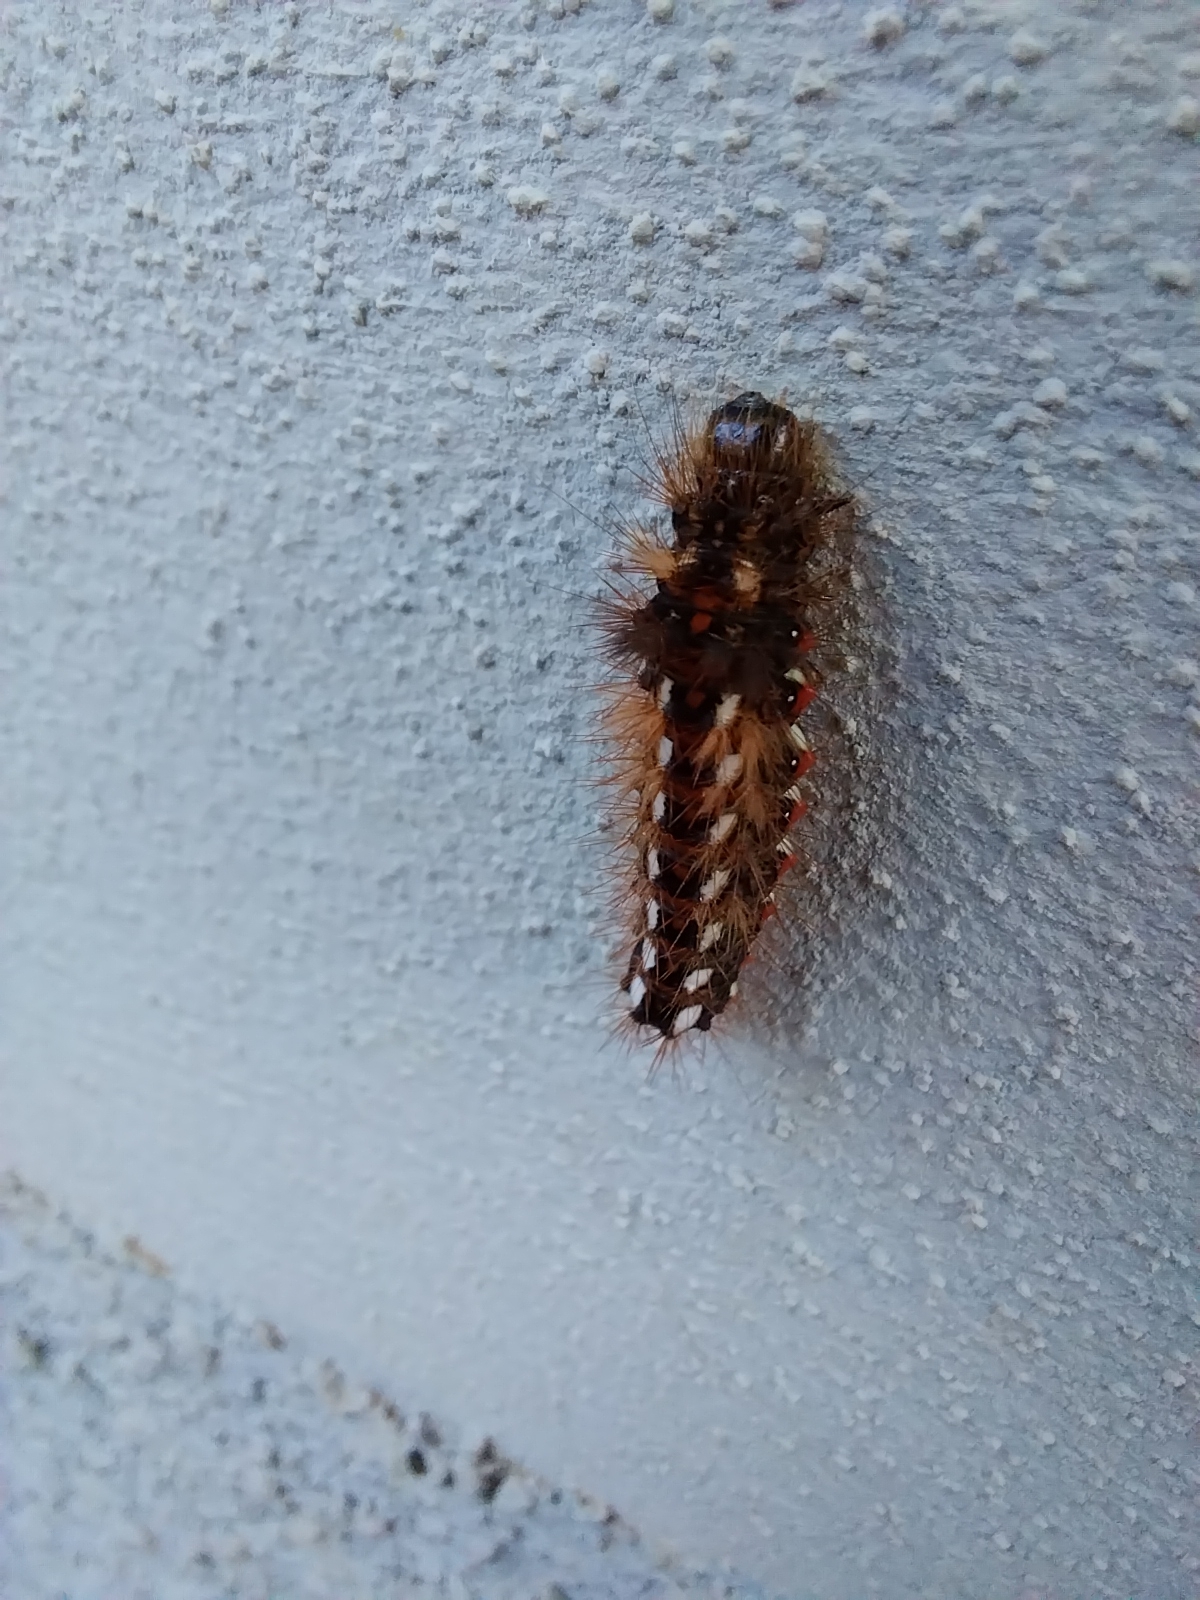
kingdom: Animalia
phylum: Arthropoda
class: Insecta
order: Lepidoptera
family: Noctuidae
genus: Acronicta
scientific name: Acronicta rumicis
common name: Knot grass
